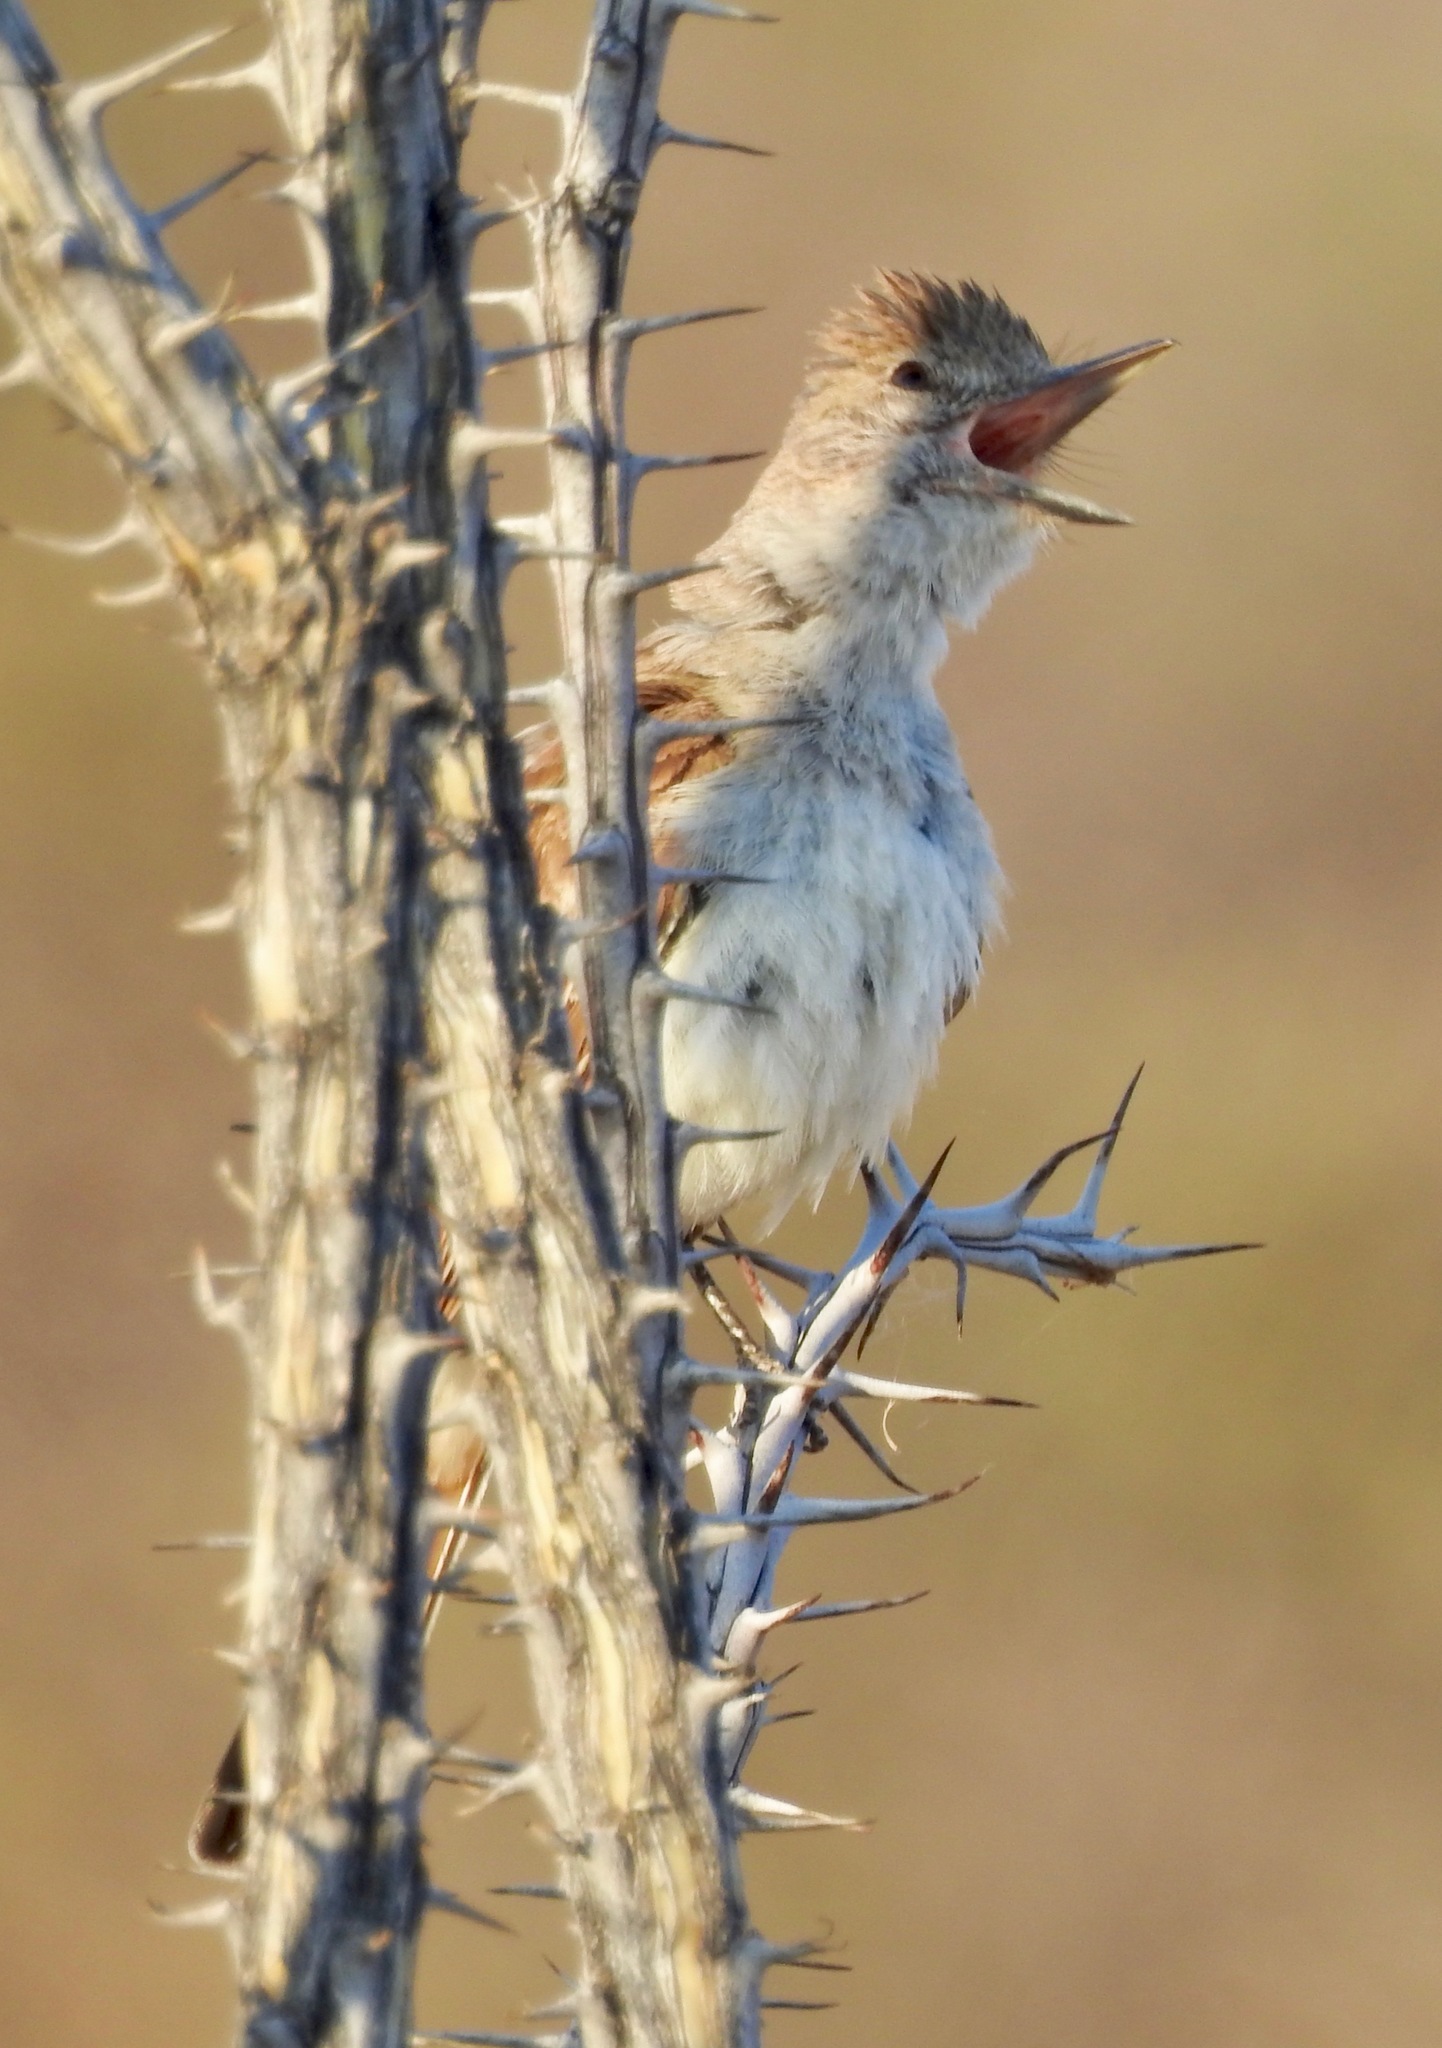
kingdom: Animalia
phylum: Chordata
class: Aves
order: Passeriformes
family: Tyrannidae
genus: Myiarchus
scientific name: Myiarchus cinerascens
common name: Ash-throated flycatcher
